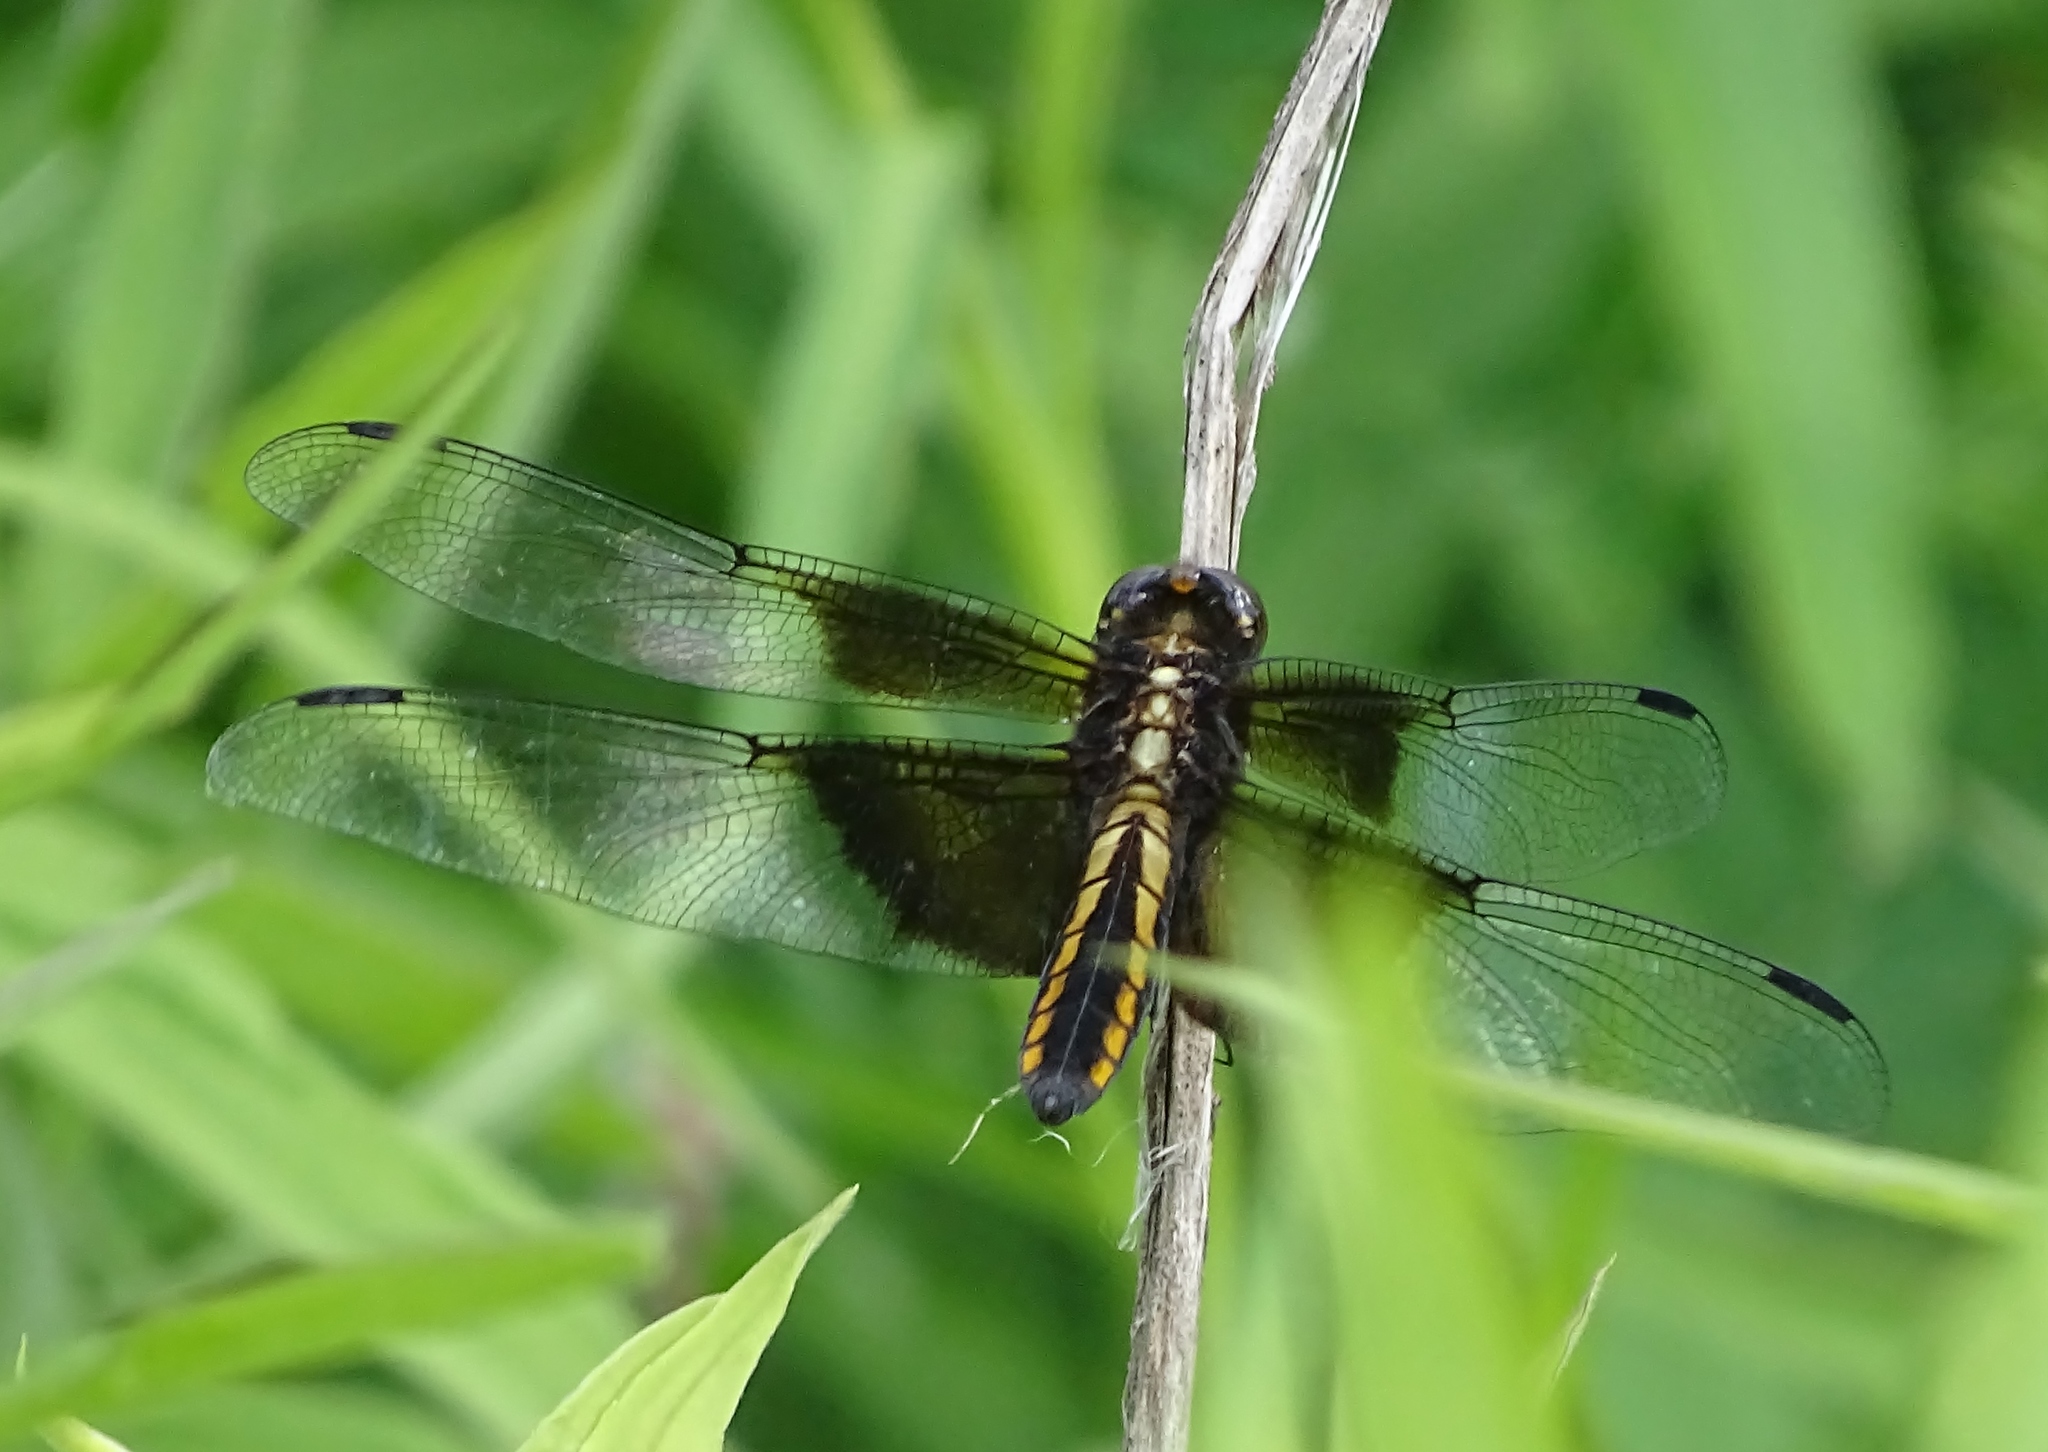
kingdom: Animalia
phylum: Arthropoda
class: Insecta
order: Odonata
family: Libellulidae
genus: Libellula
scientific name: Libellula luctuosa
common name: Widow skimmer
